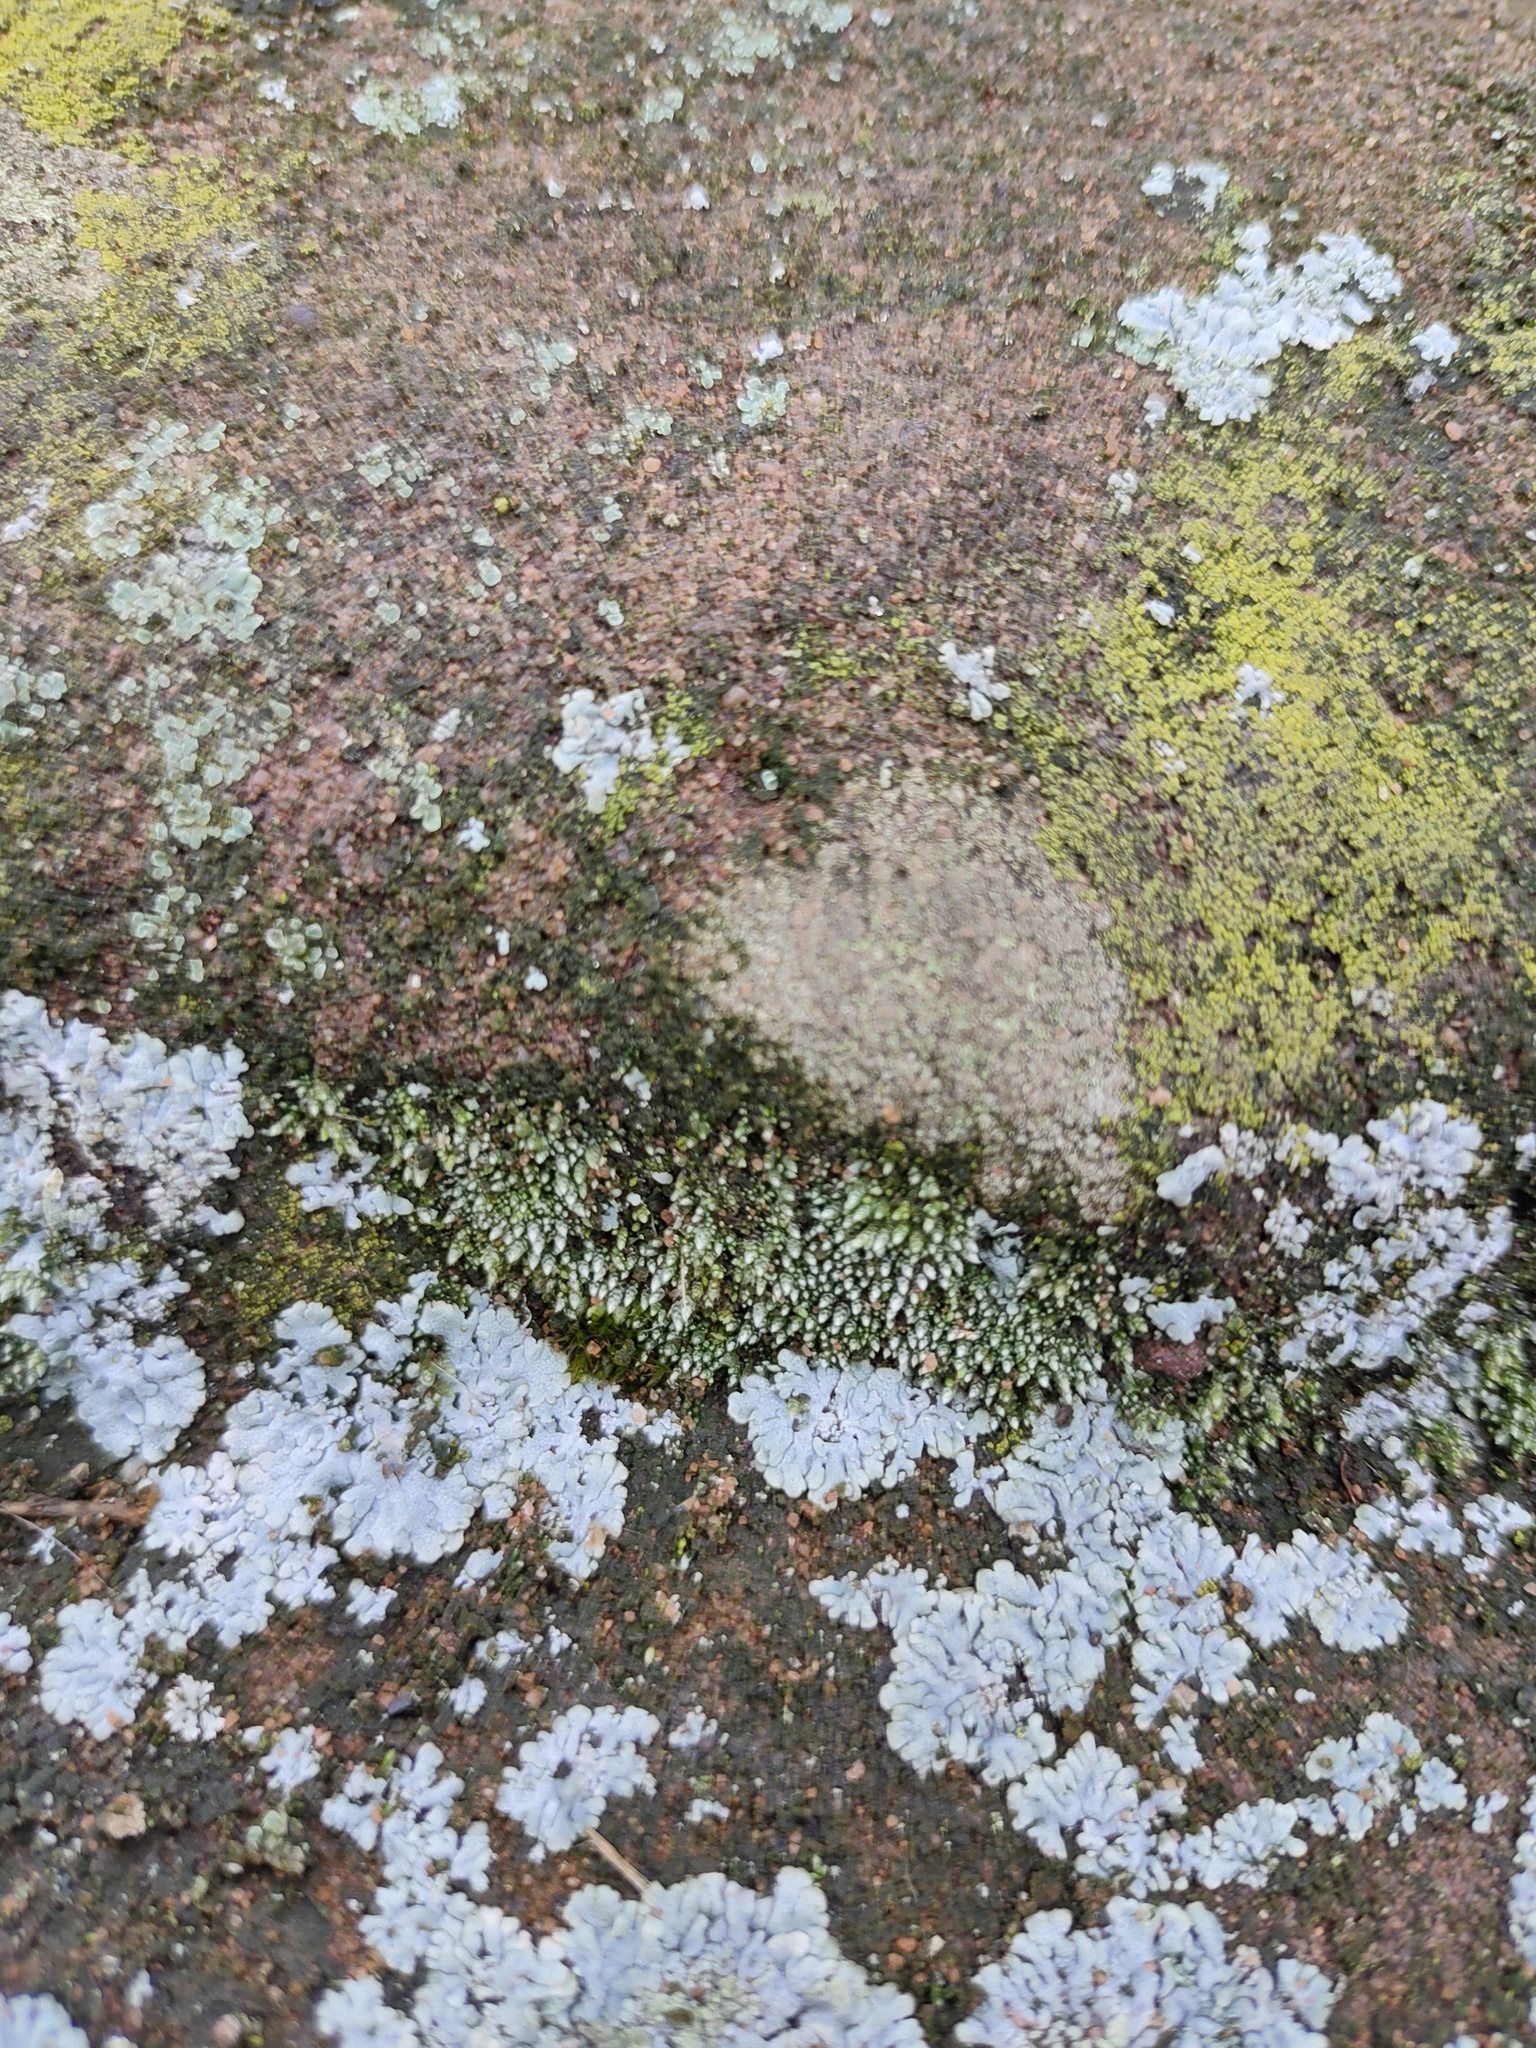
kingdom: Plantae
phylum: Bryophyta
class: Bryopsida
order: Bryales
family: Bryaceae
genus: Bryum
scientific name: Bryum argenteum
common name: Silver-moss
